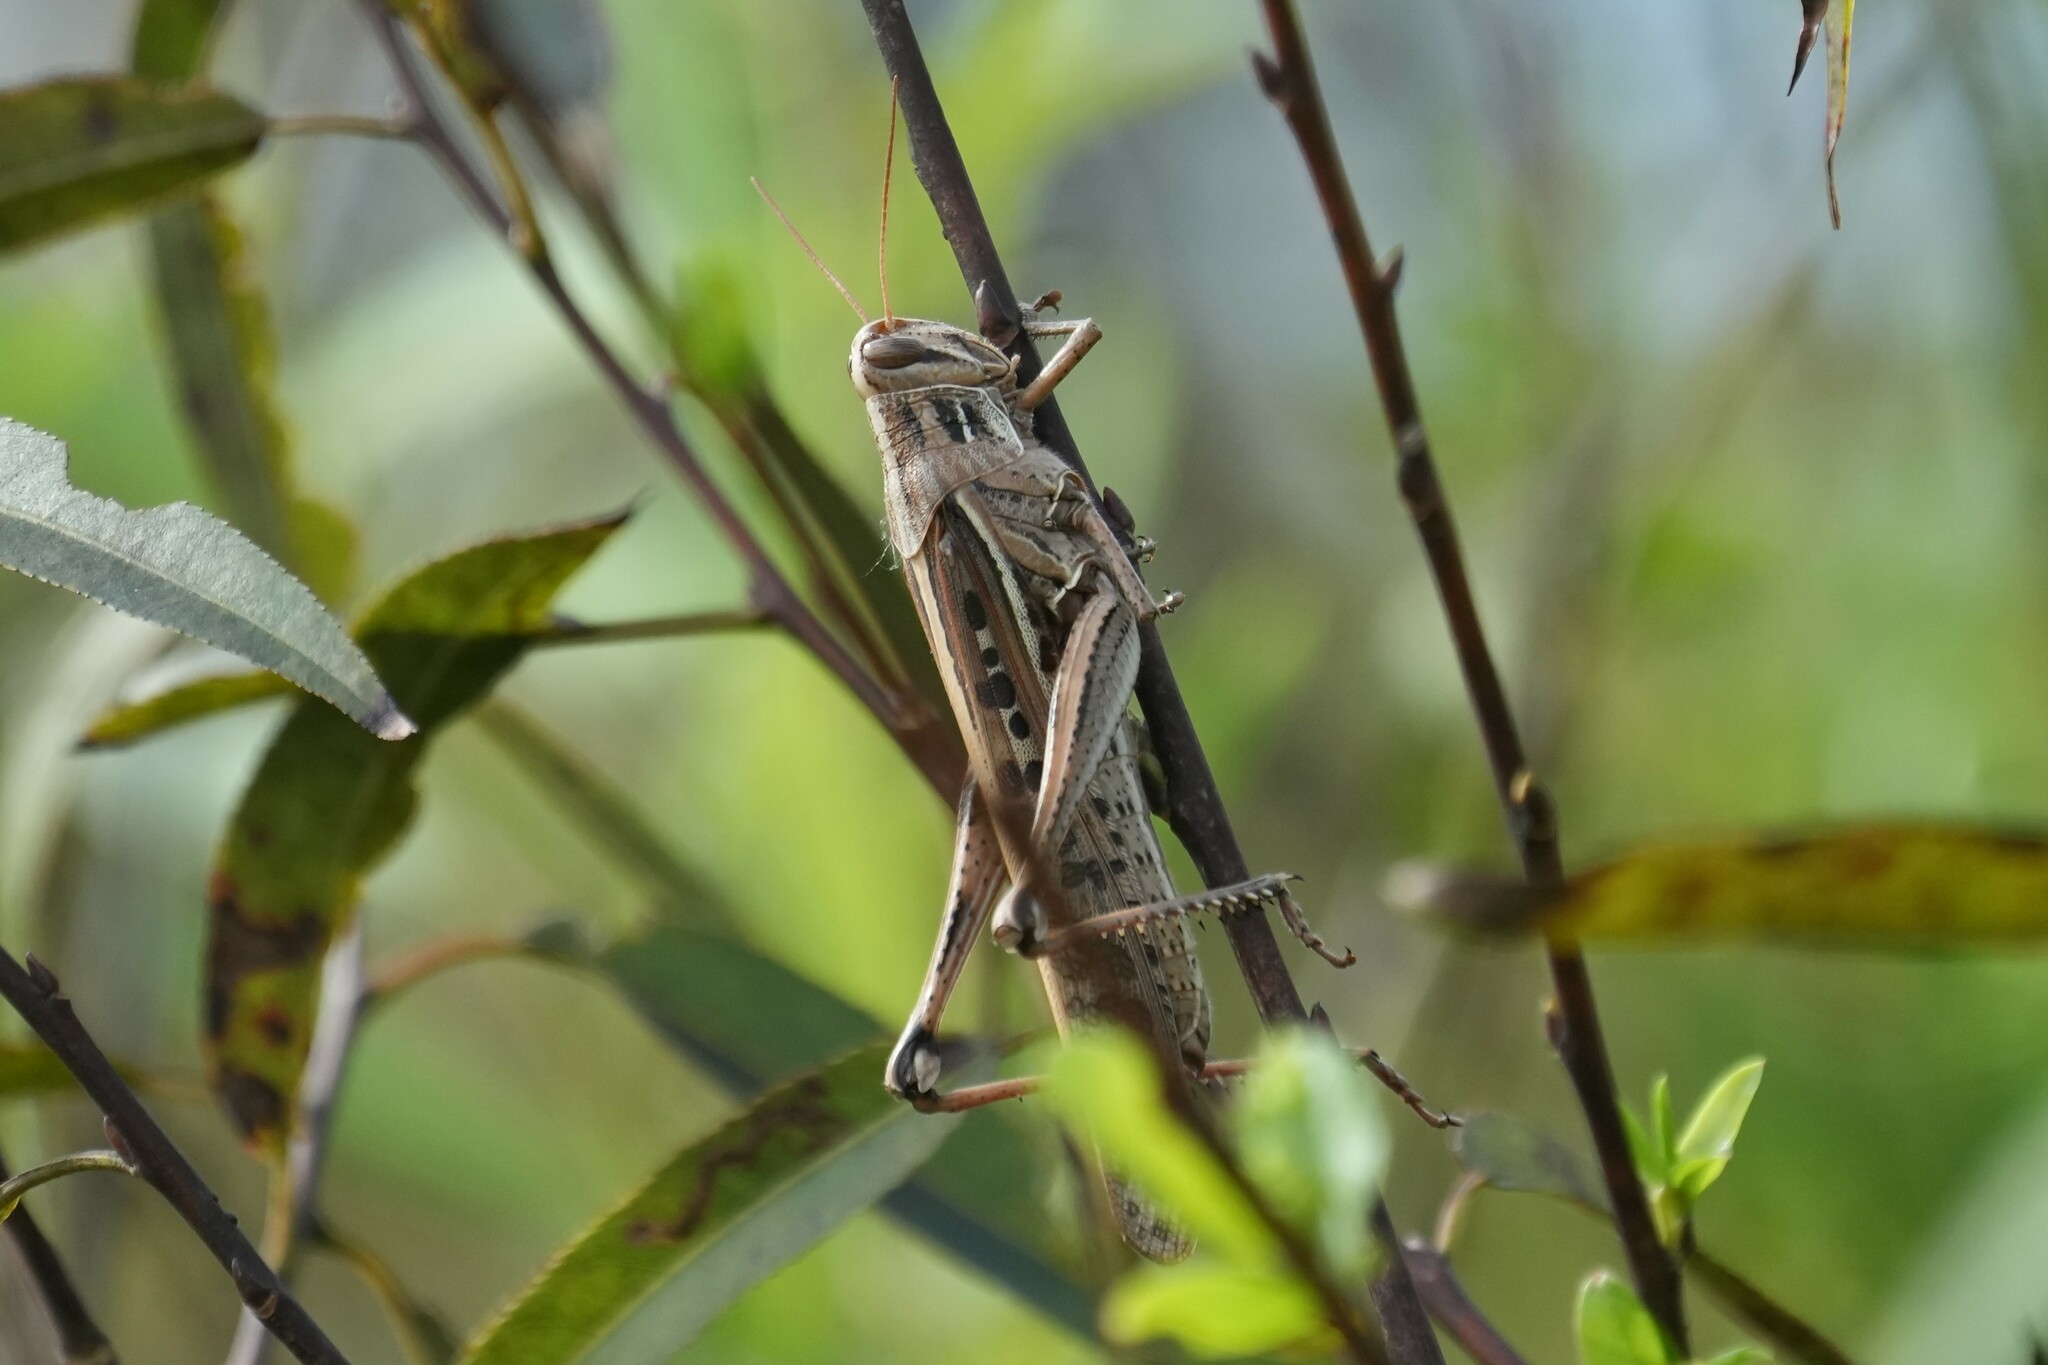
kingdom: Animalia
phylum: Arthropoda
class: Insecta
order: Orthoptera
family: Acrididae
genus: Schistocerca
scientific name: Schistocerca serialis
